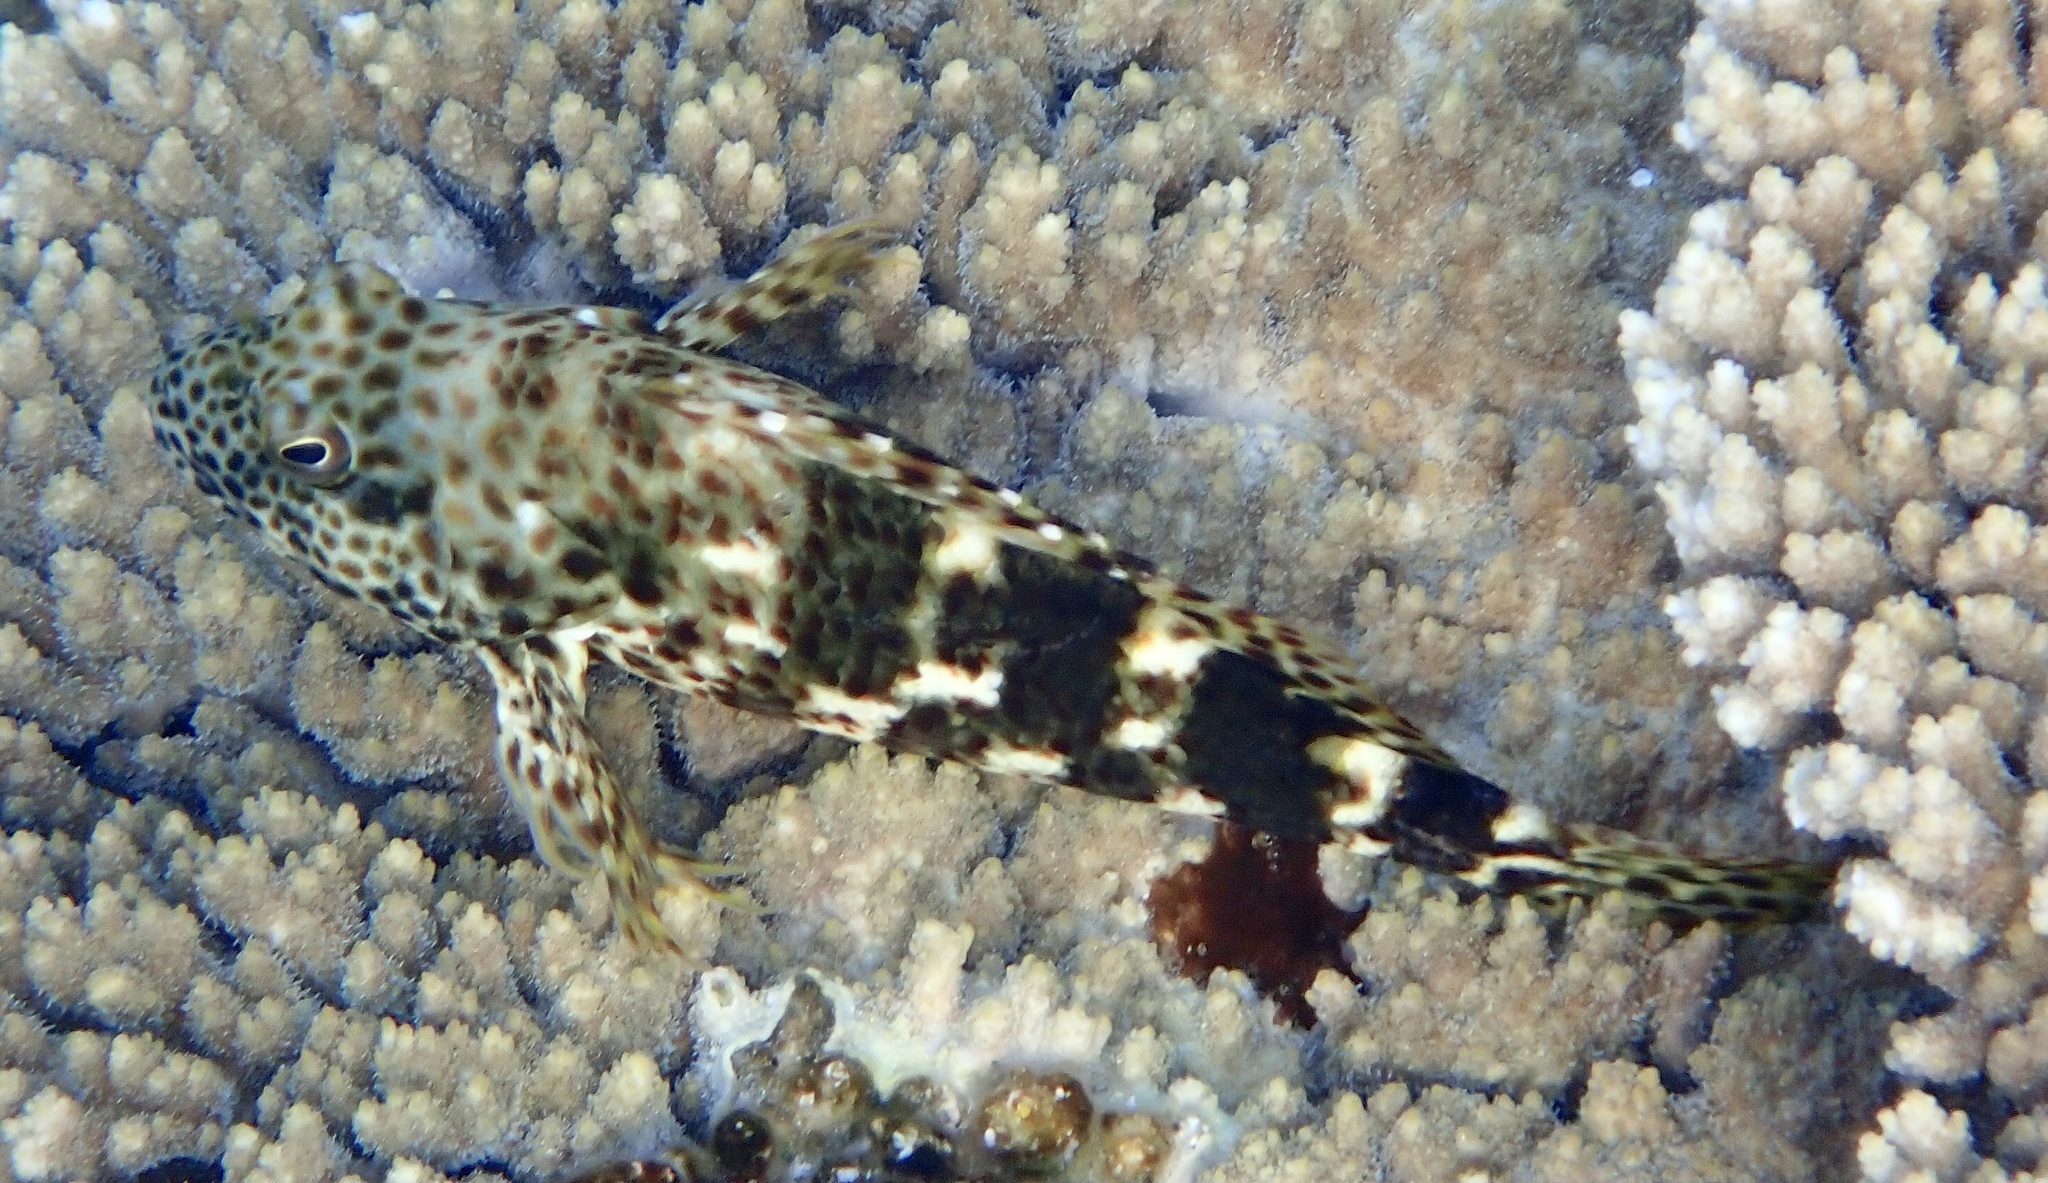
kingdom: Animalia
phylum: Chordata
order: Perciformes
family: Cirrhitidae
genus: Cirrhitus
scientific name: Cirrhitus pinnulatus
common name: Stocky hawkfish
